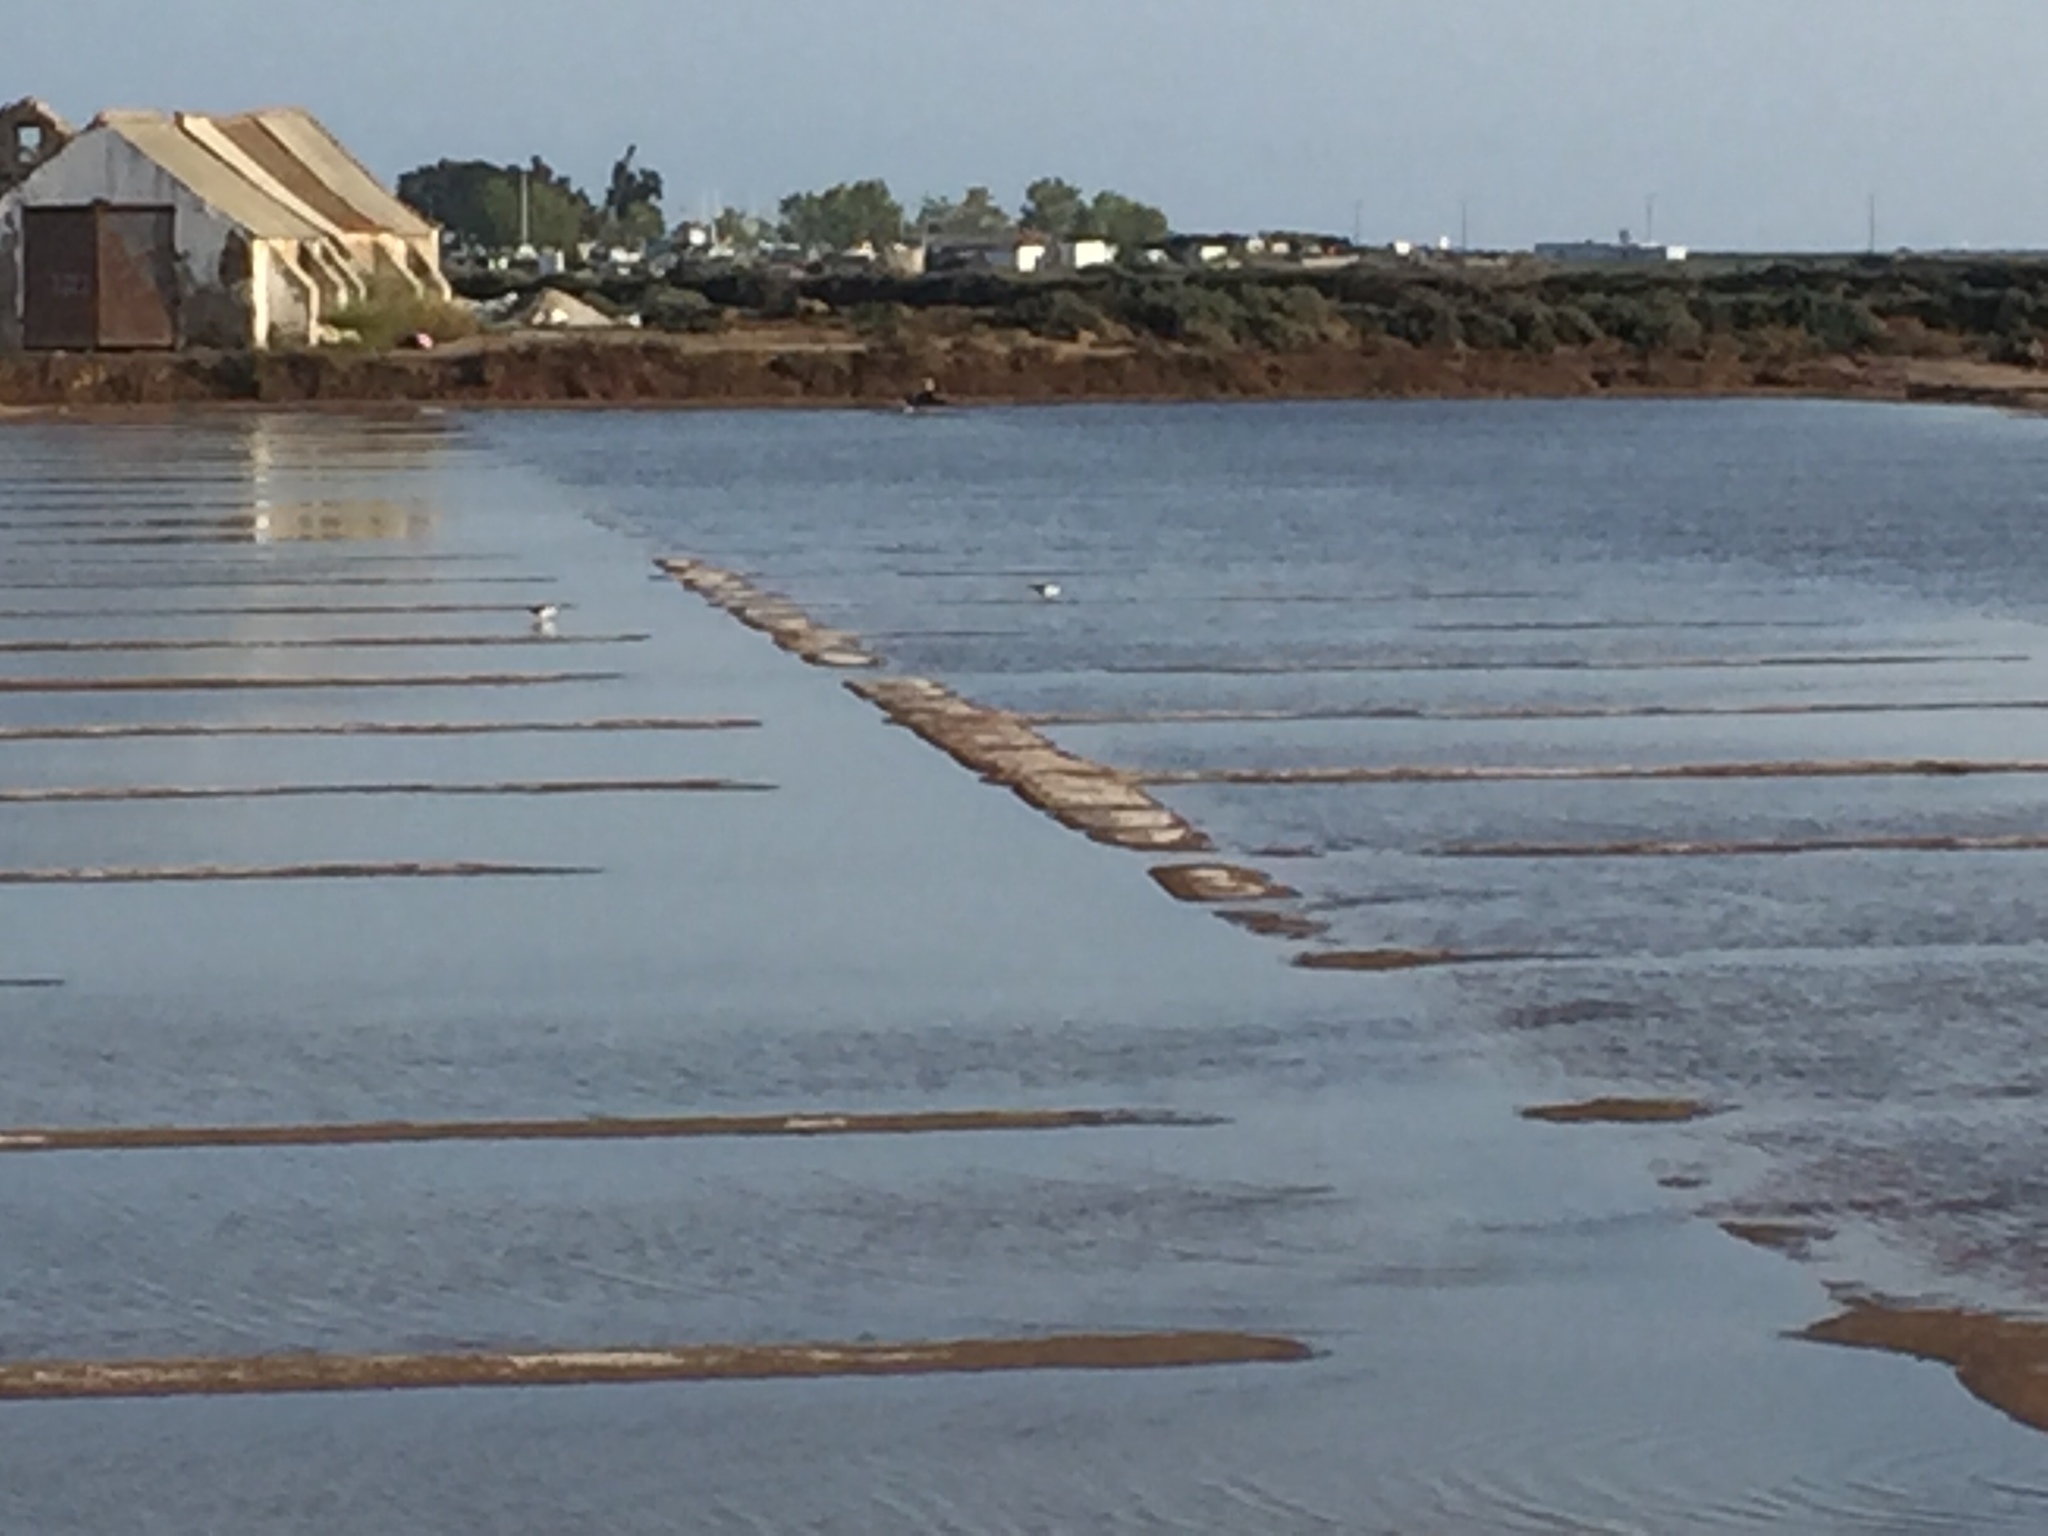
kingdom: Animalia
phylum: Chordata
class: Aves
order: Charadriiformes
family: Recurvirostridae
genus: Himantopus
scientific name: Himantopus himantopus
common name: Black-winged stilt
